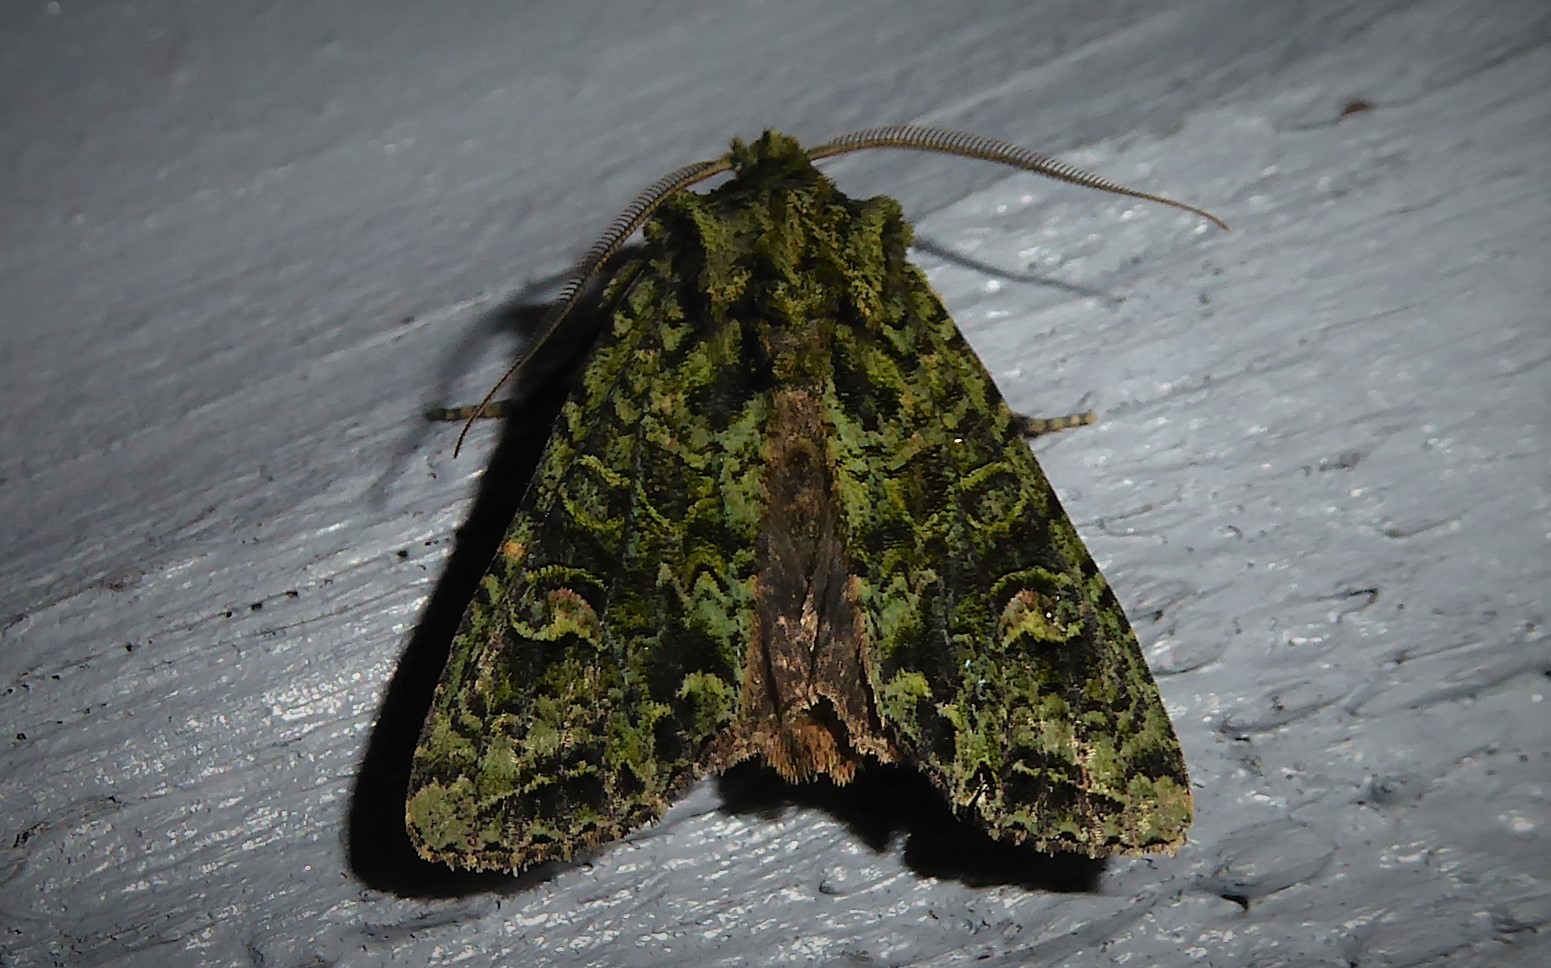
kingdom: Animalia
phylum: Arthropoda
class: Insecta
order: Lepidoptera
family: Noctuidae
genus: Ichneutica
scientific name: Ichneutica
